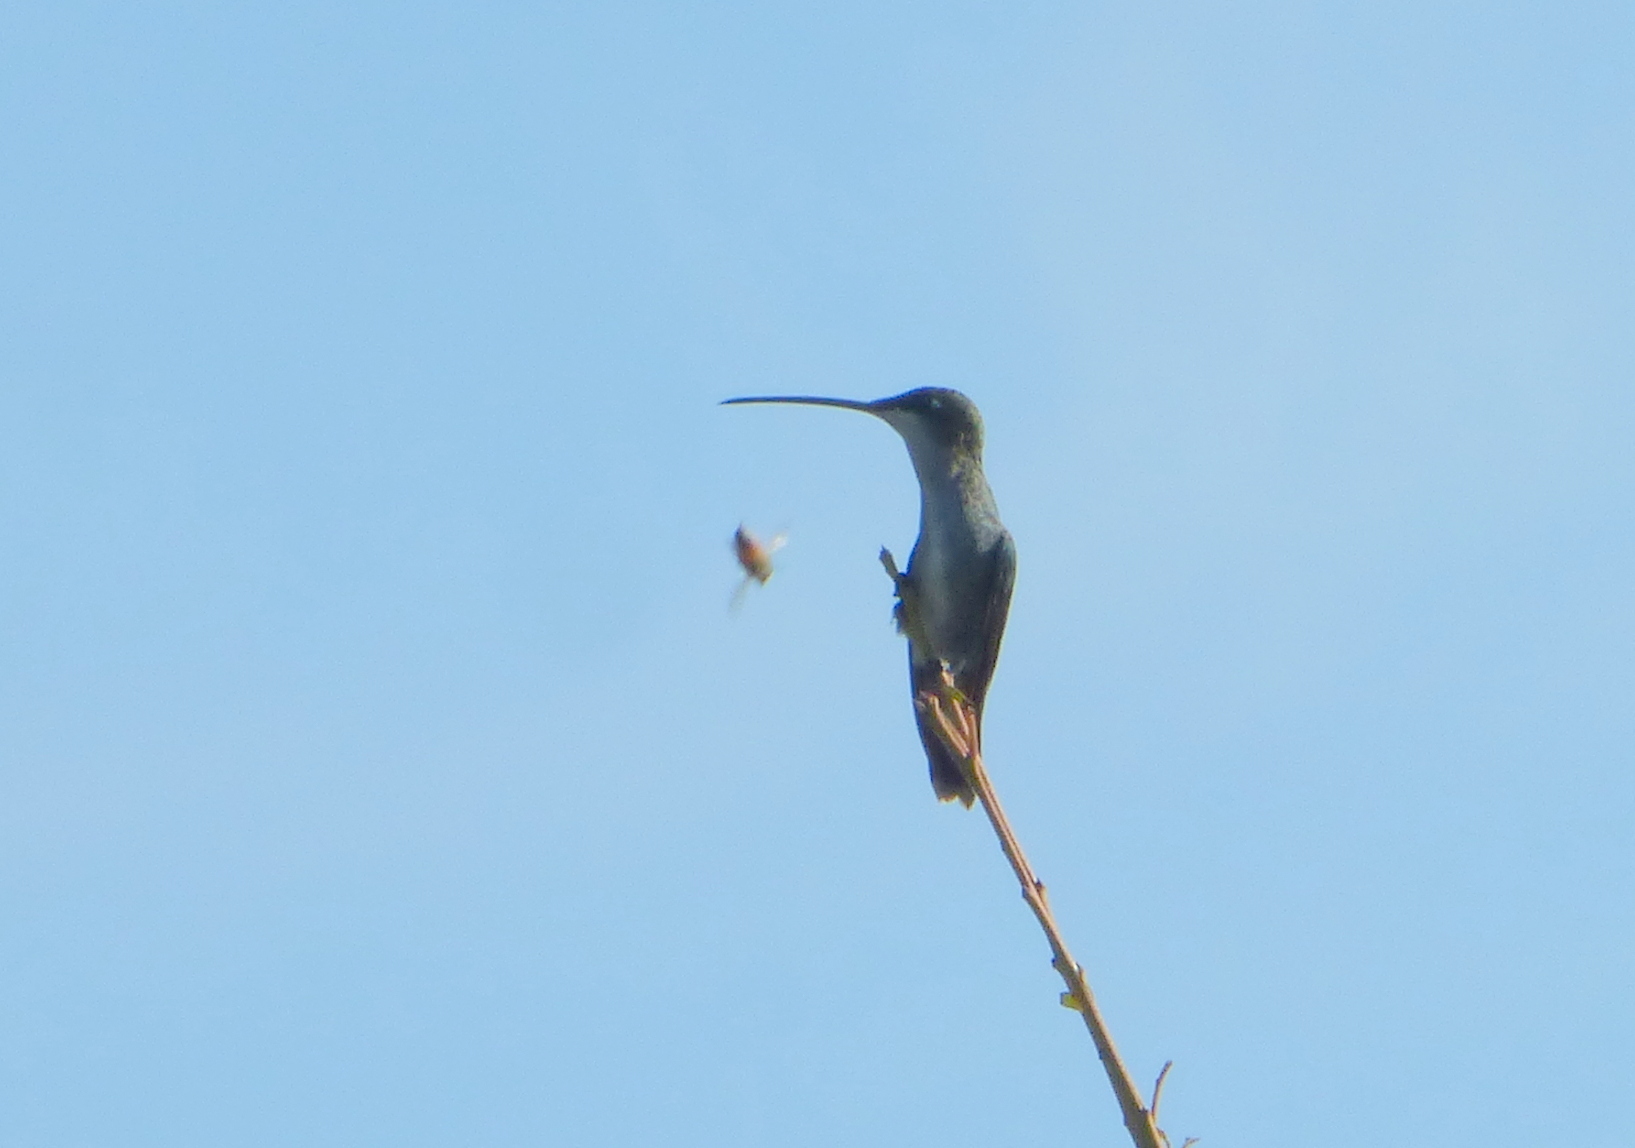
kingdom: Animalia
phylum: Chordata
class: Aves
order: Apodiformes
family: Trochilidae
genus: Heliomaster
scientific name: Heliomaster furcifer
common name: Blue-tufted starthroat
